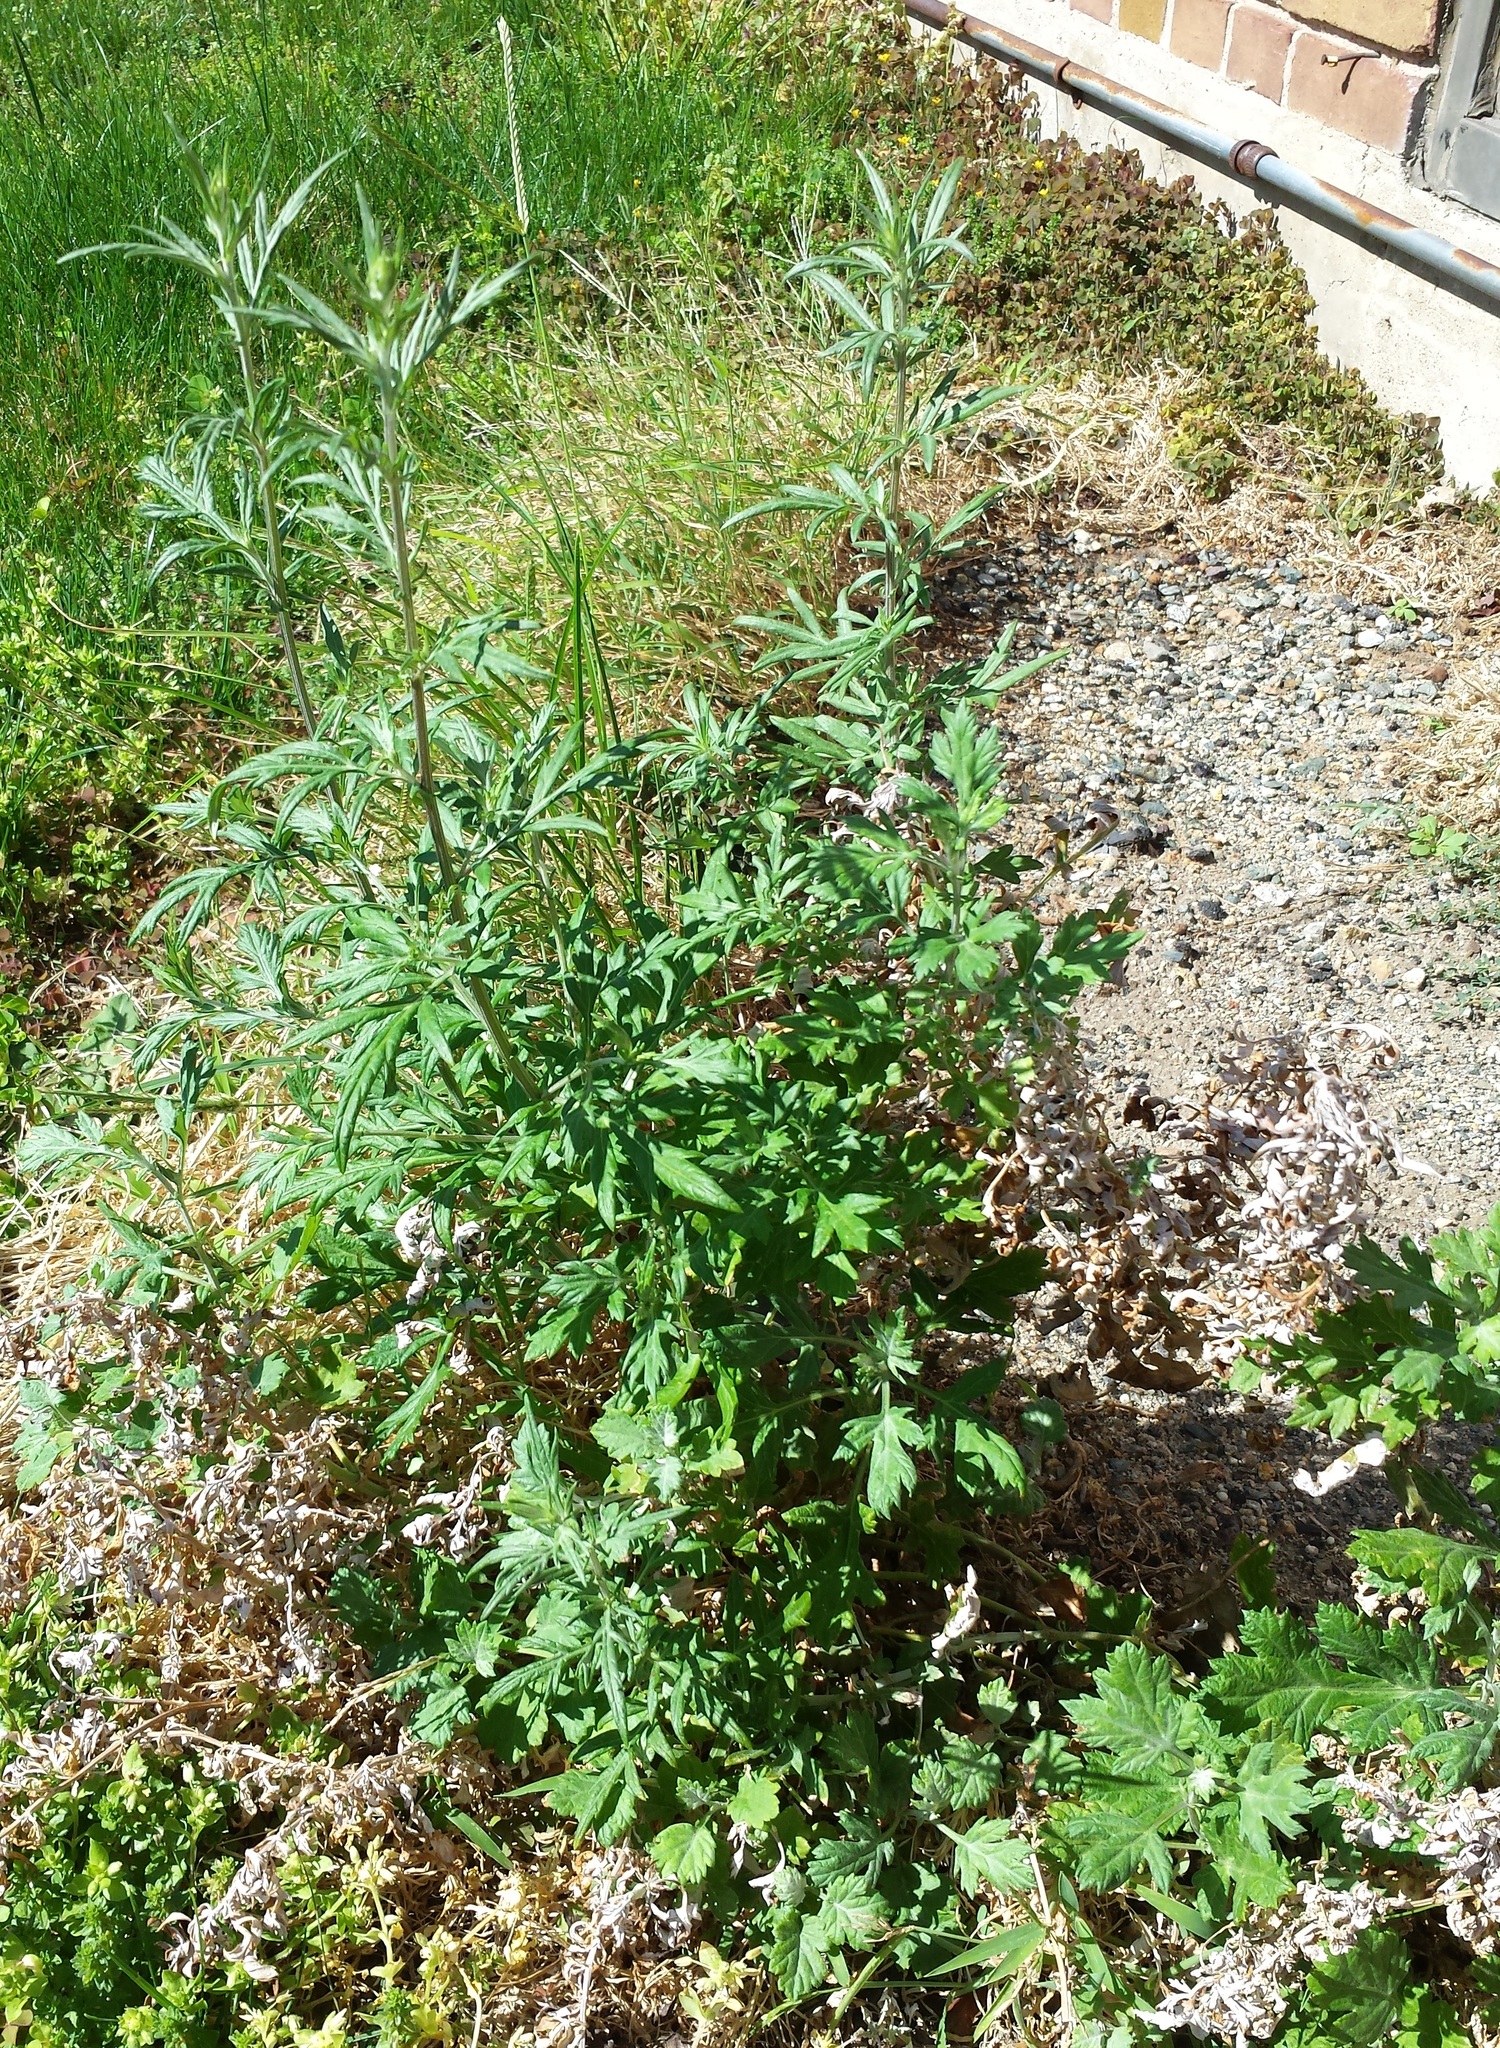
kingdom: Plantae
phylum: Tracheophyta
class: Magnoliopsida
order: Asterales
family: Asteraceae
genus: Artemisia
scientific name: Artemisia vulgaris
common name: Mugwort
